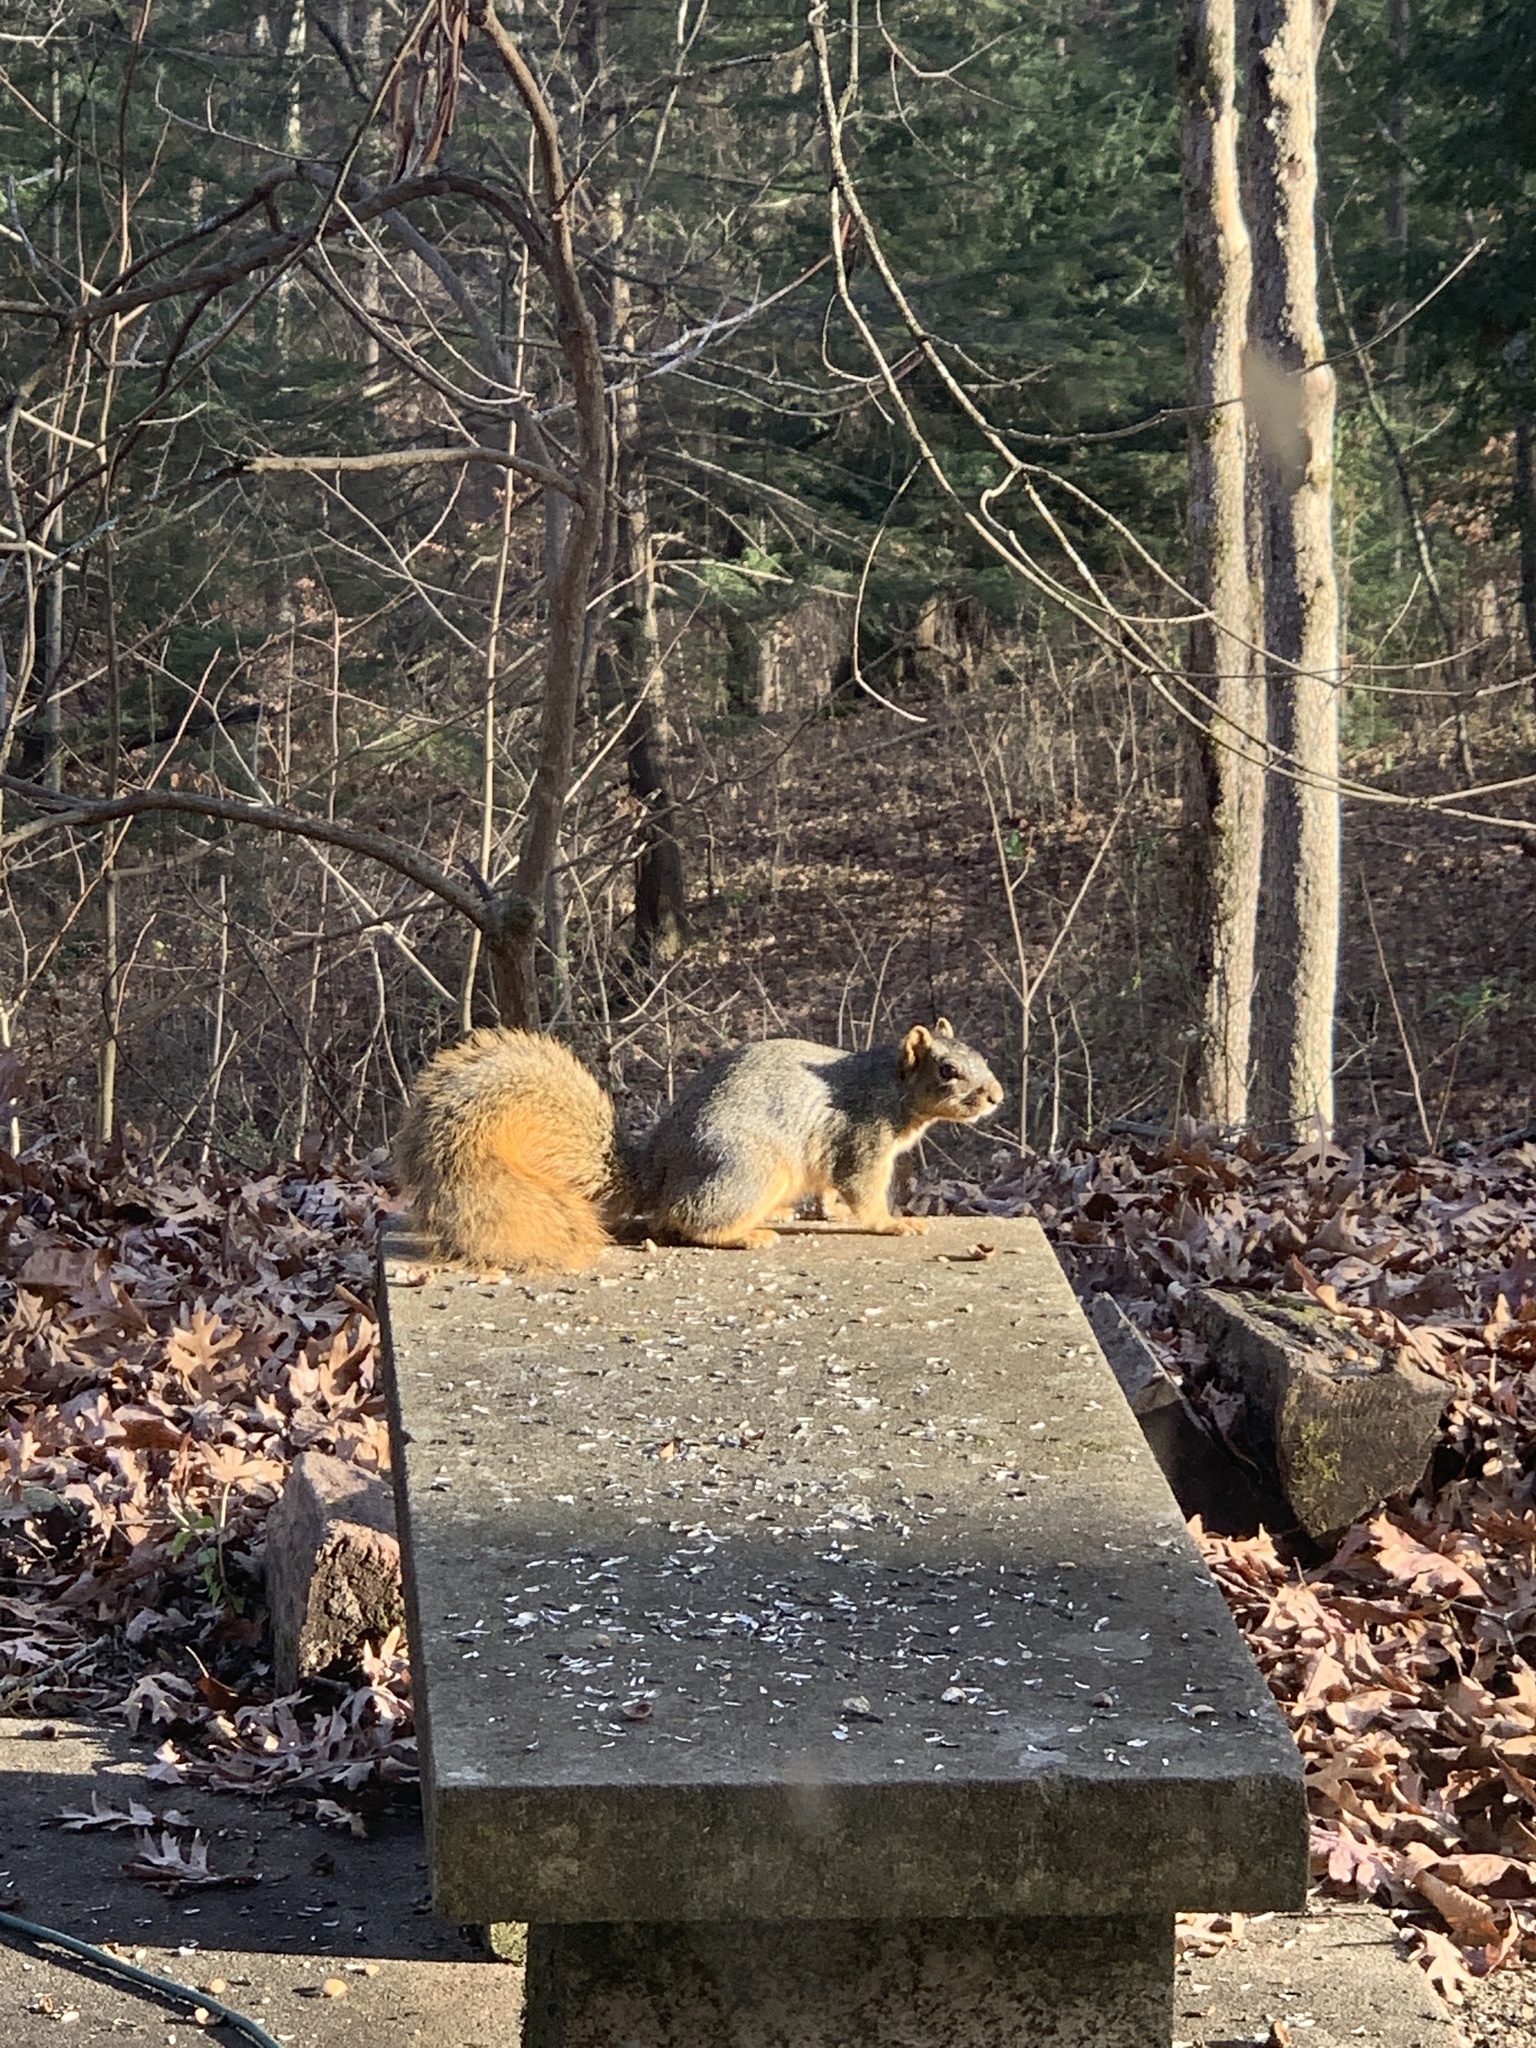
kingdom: Animalia
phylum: Chordata
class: Mammalia
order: Rodentia
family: Sciuridae
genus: Sciurus
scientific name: Sciurus niger
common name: Fox squirrel
